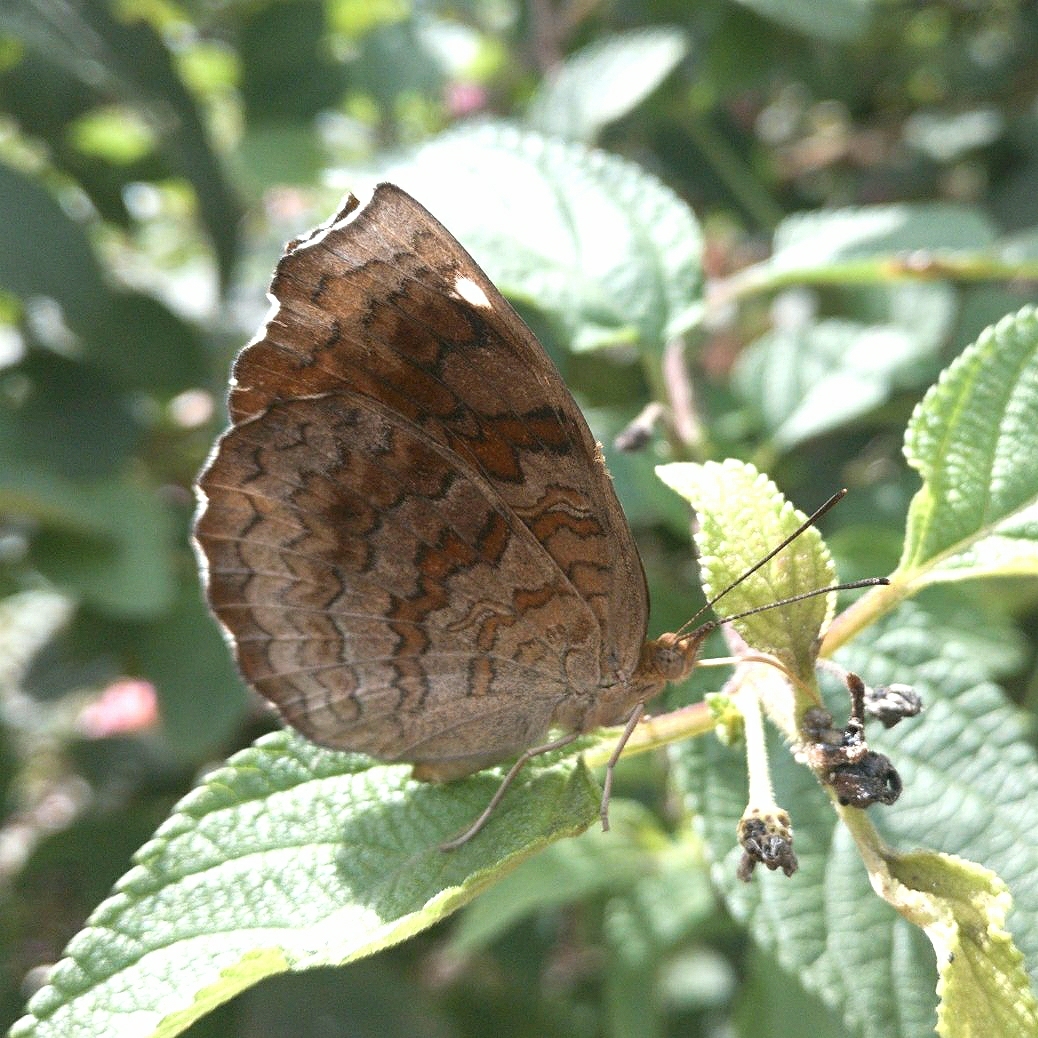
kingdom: Animalia
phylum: Arthropoda
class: Insecta
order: Lepidoptera
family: Nymphalidae
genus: Ariadne
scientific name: Ariadne merione
